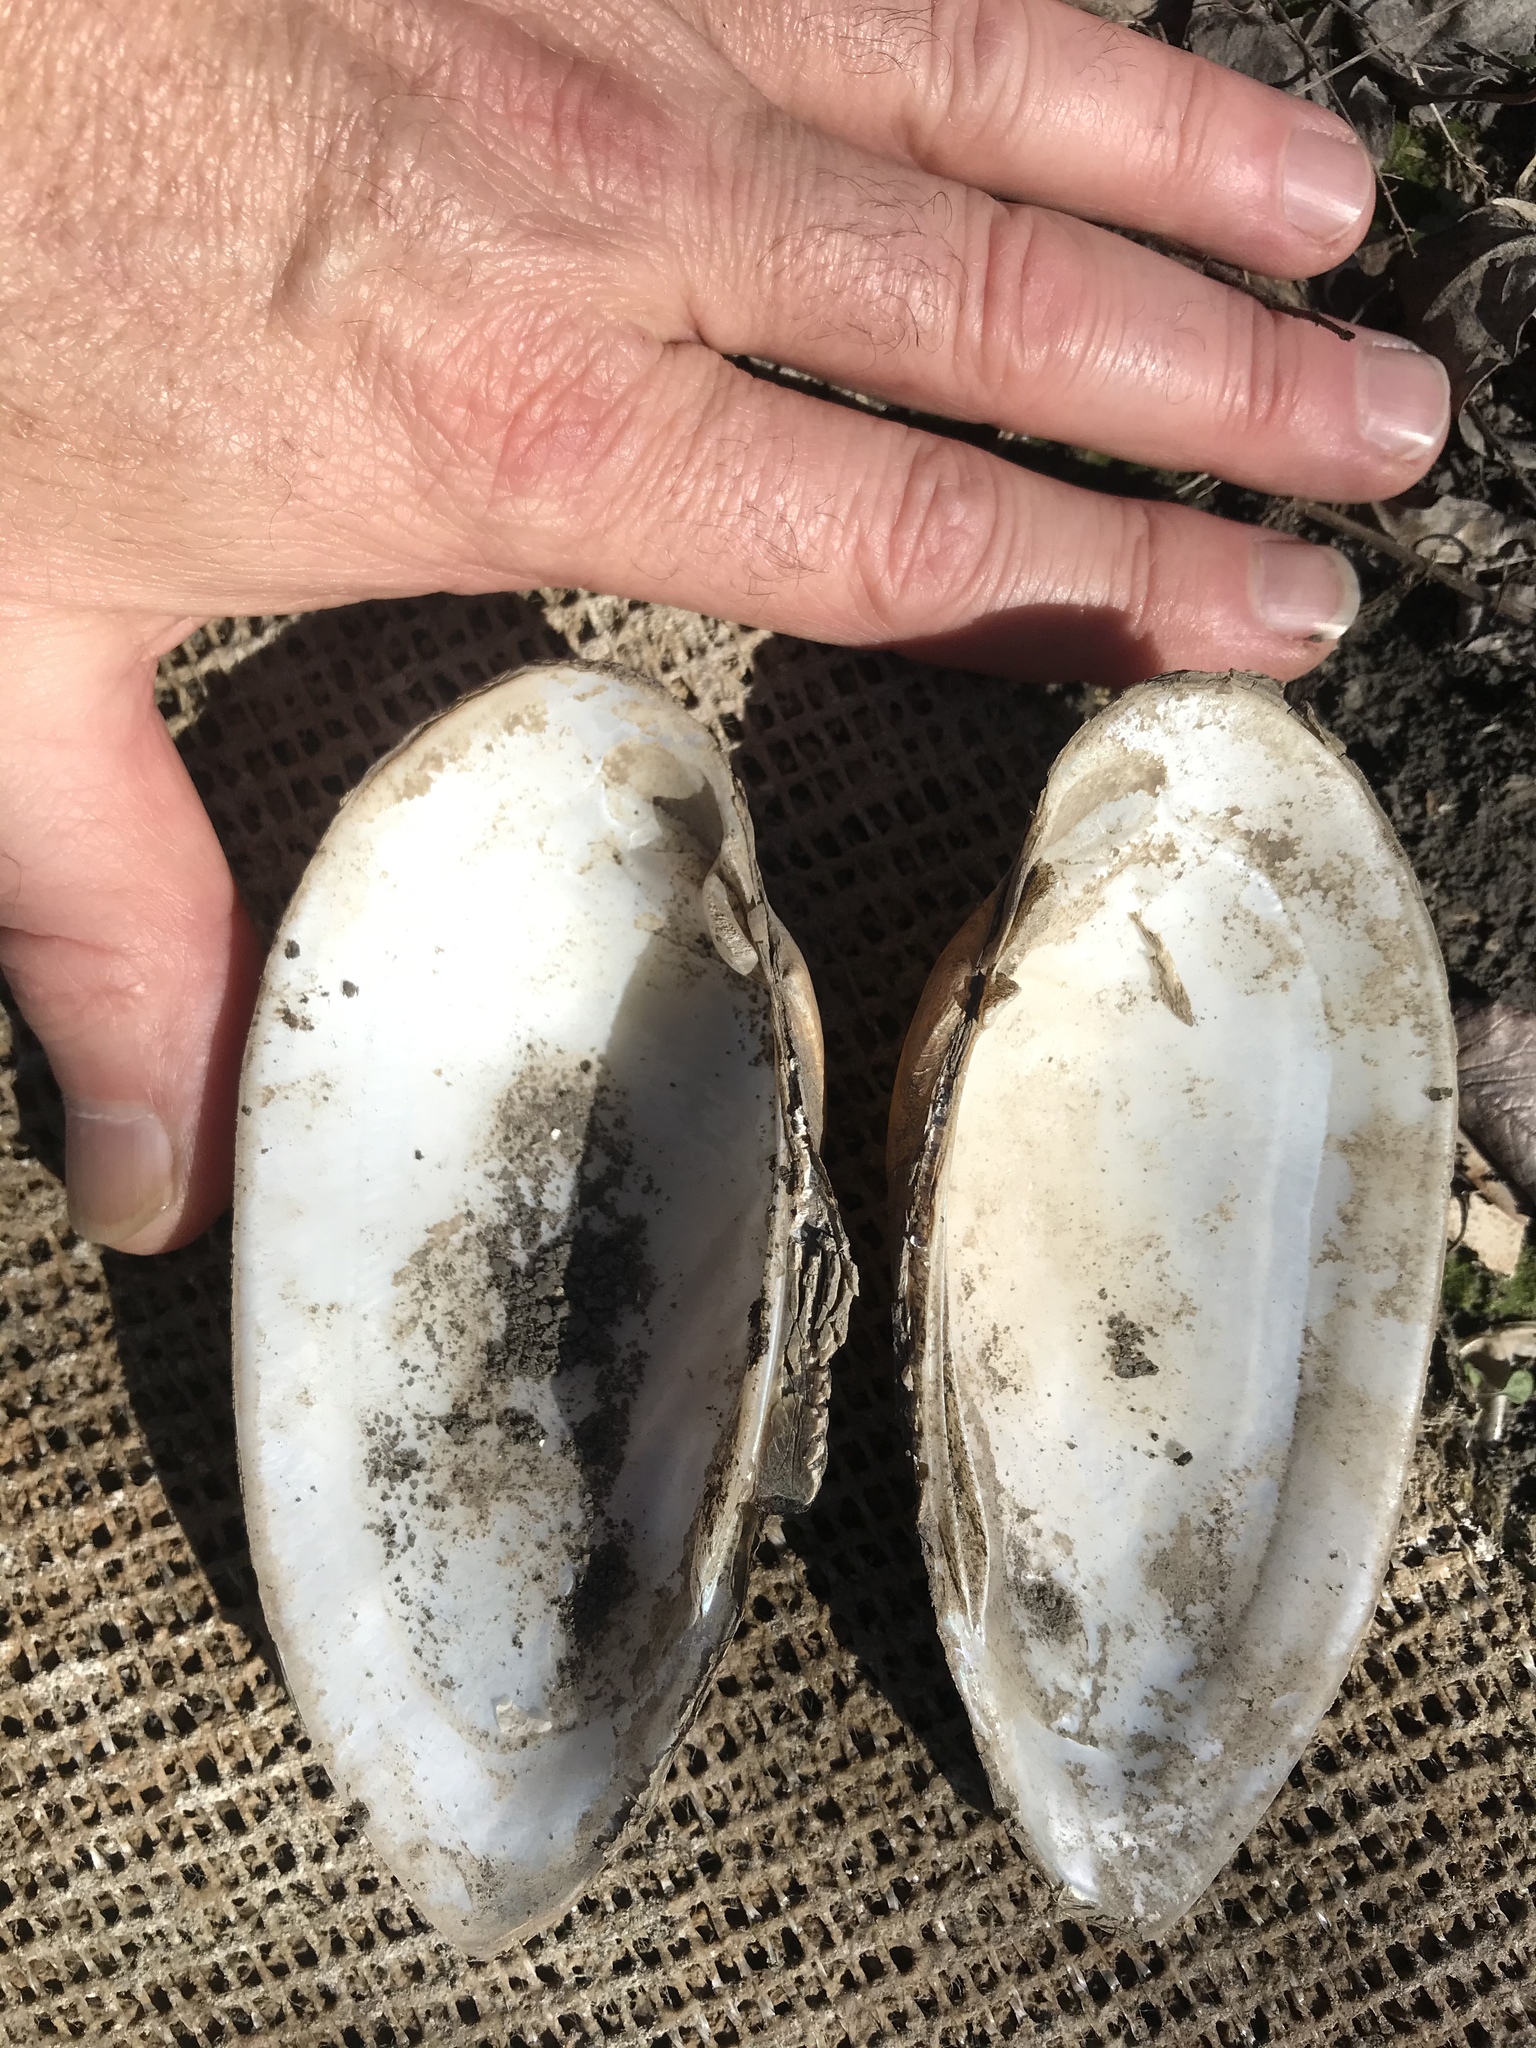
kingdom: Animalia
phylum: Mollusca
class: Bivalvia
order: Unionida
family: Unionidae
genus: Lampsilis
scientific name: Lampsilis teres
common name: Yellow sandshell
